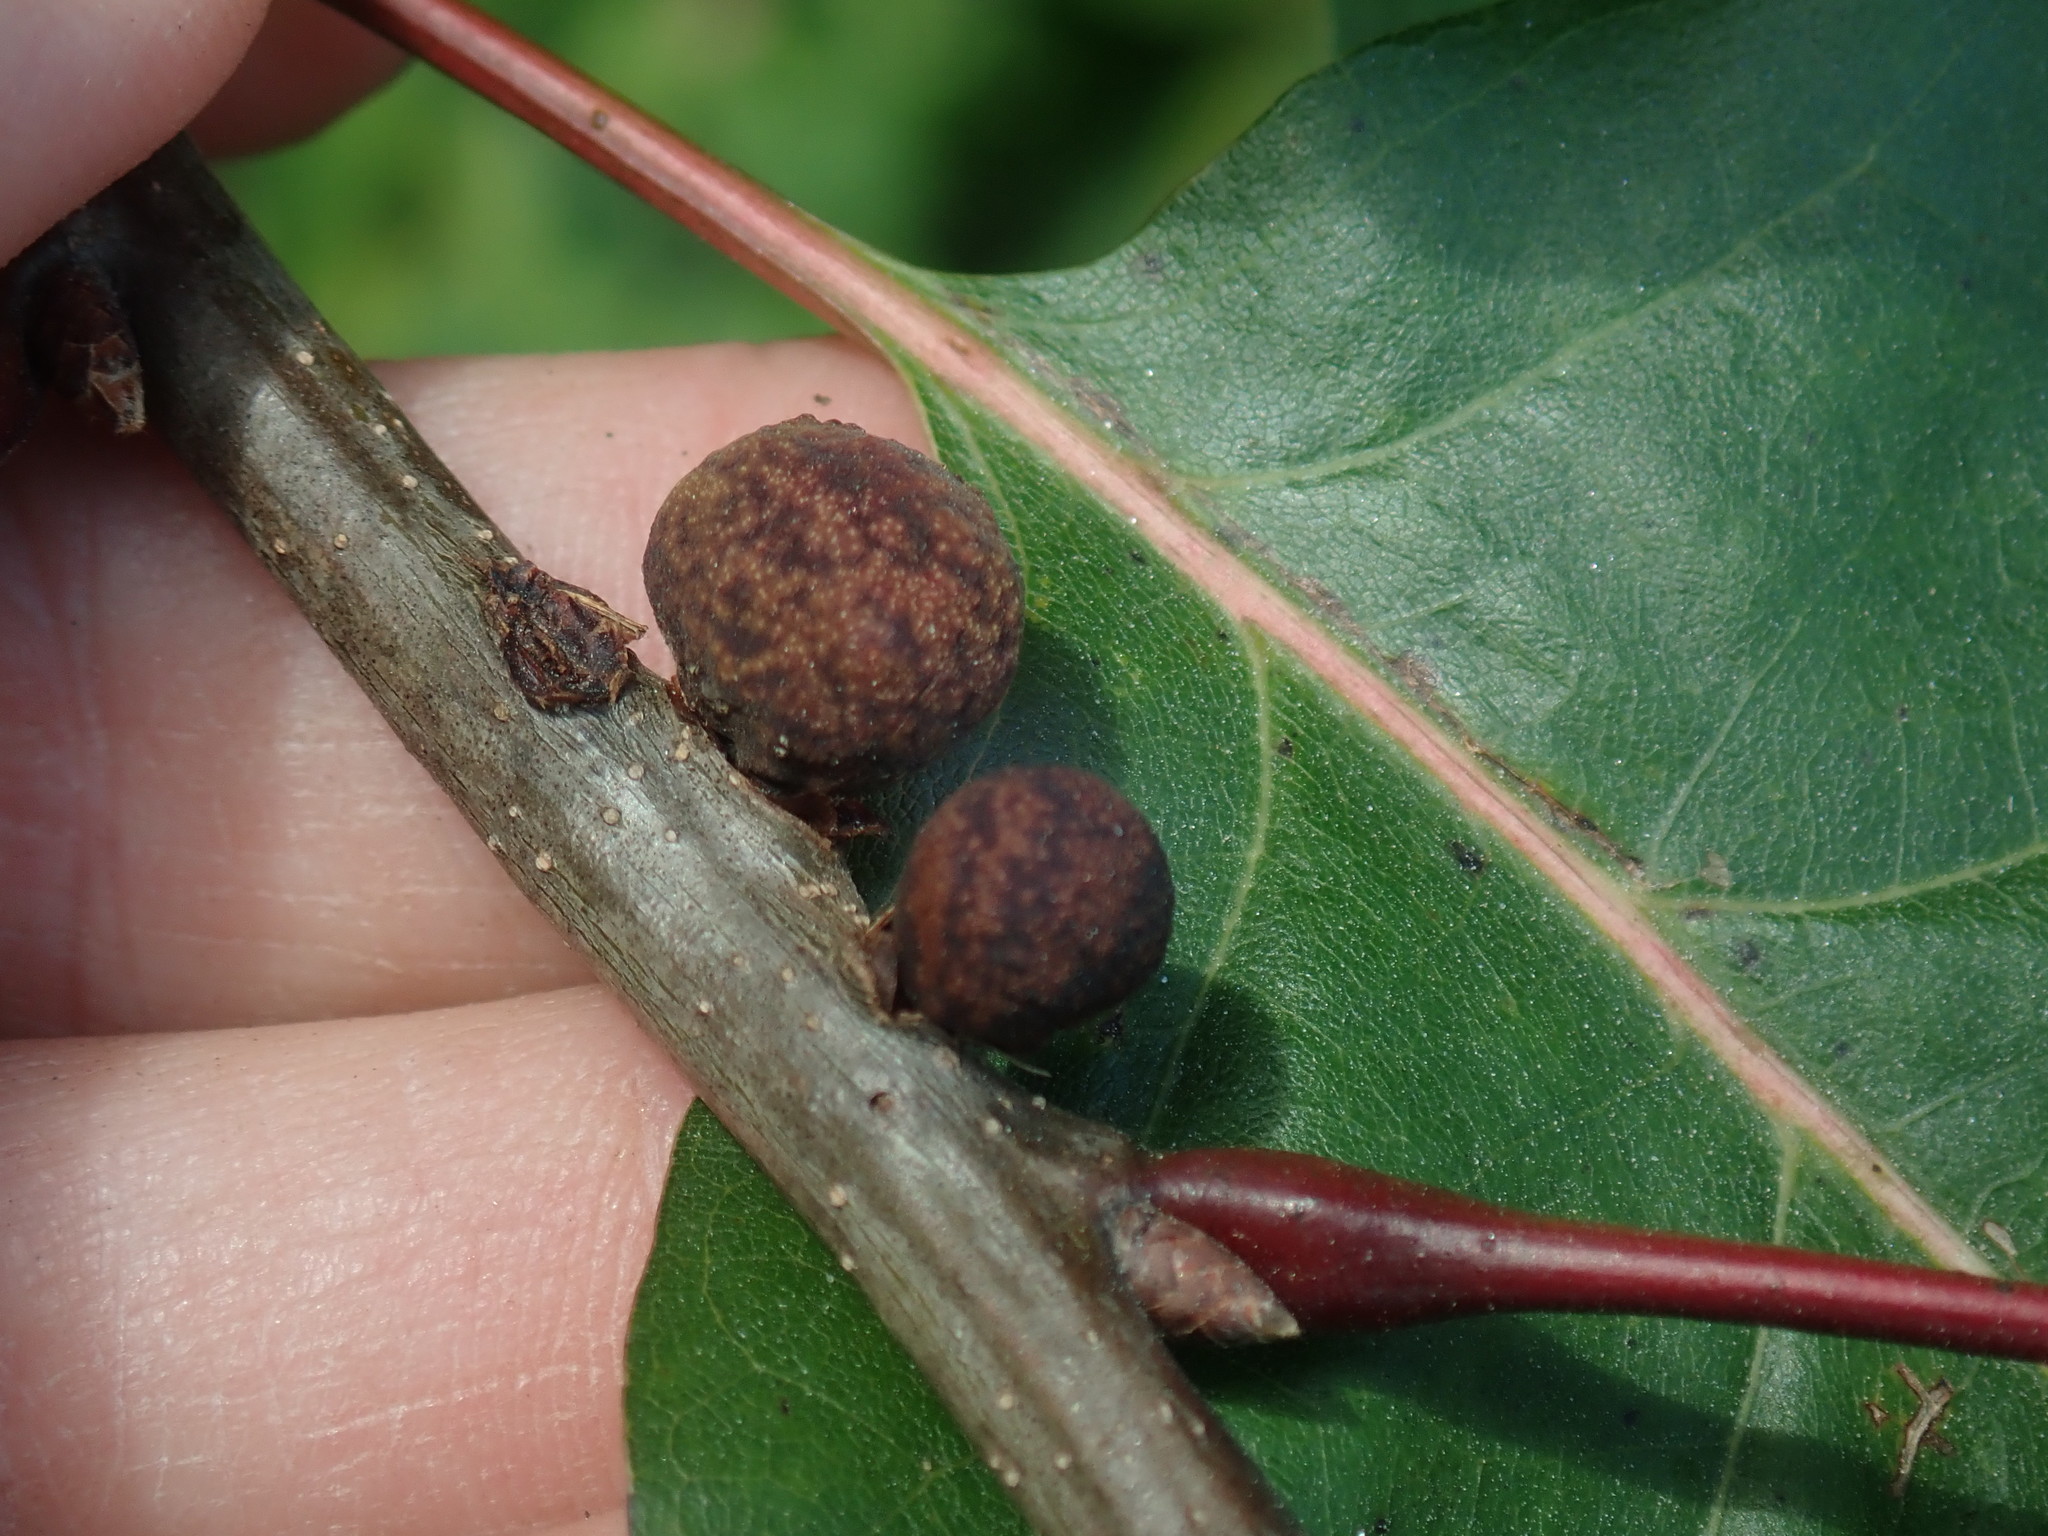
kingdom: Animalia
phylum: Arthropoda
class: Insecta
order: Hymenoptera
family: Cynipidae
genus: Kokkocynips
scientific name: Kokkocynips imbricariae
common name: Banded bullet gall wasp
